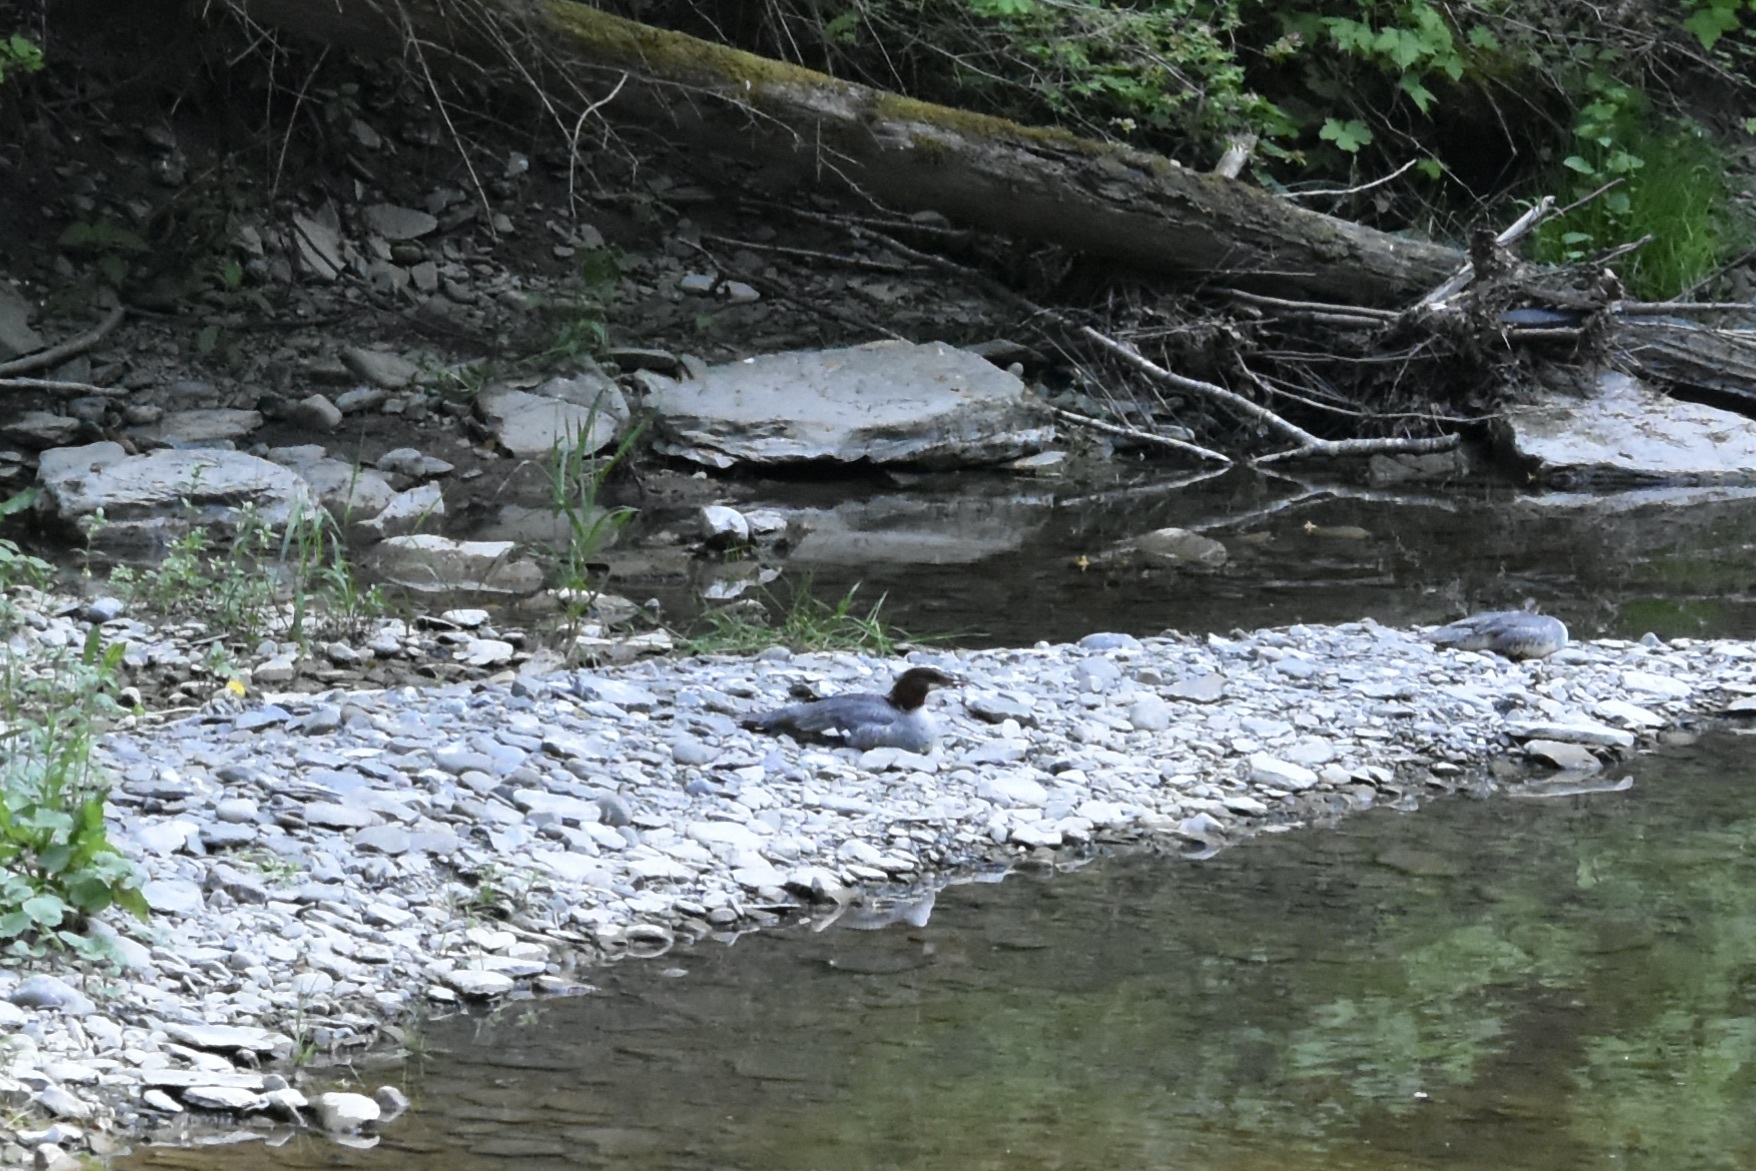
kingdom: Animalia
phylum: Chordata
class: Aves
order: Anseriformes
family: Anatidae
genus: Mergus
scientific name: Mergus merganser
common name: Common merganser
